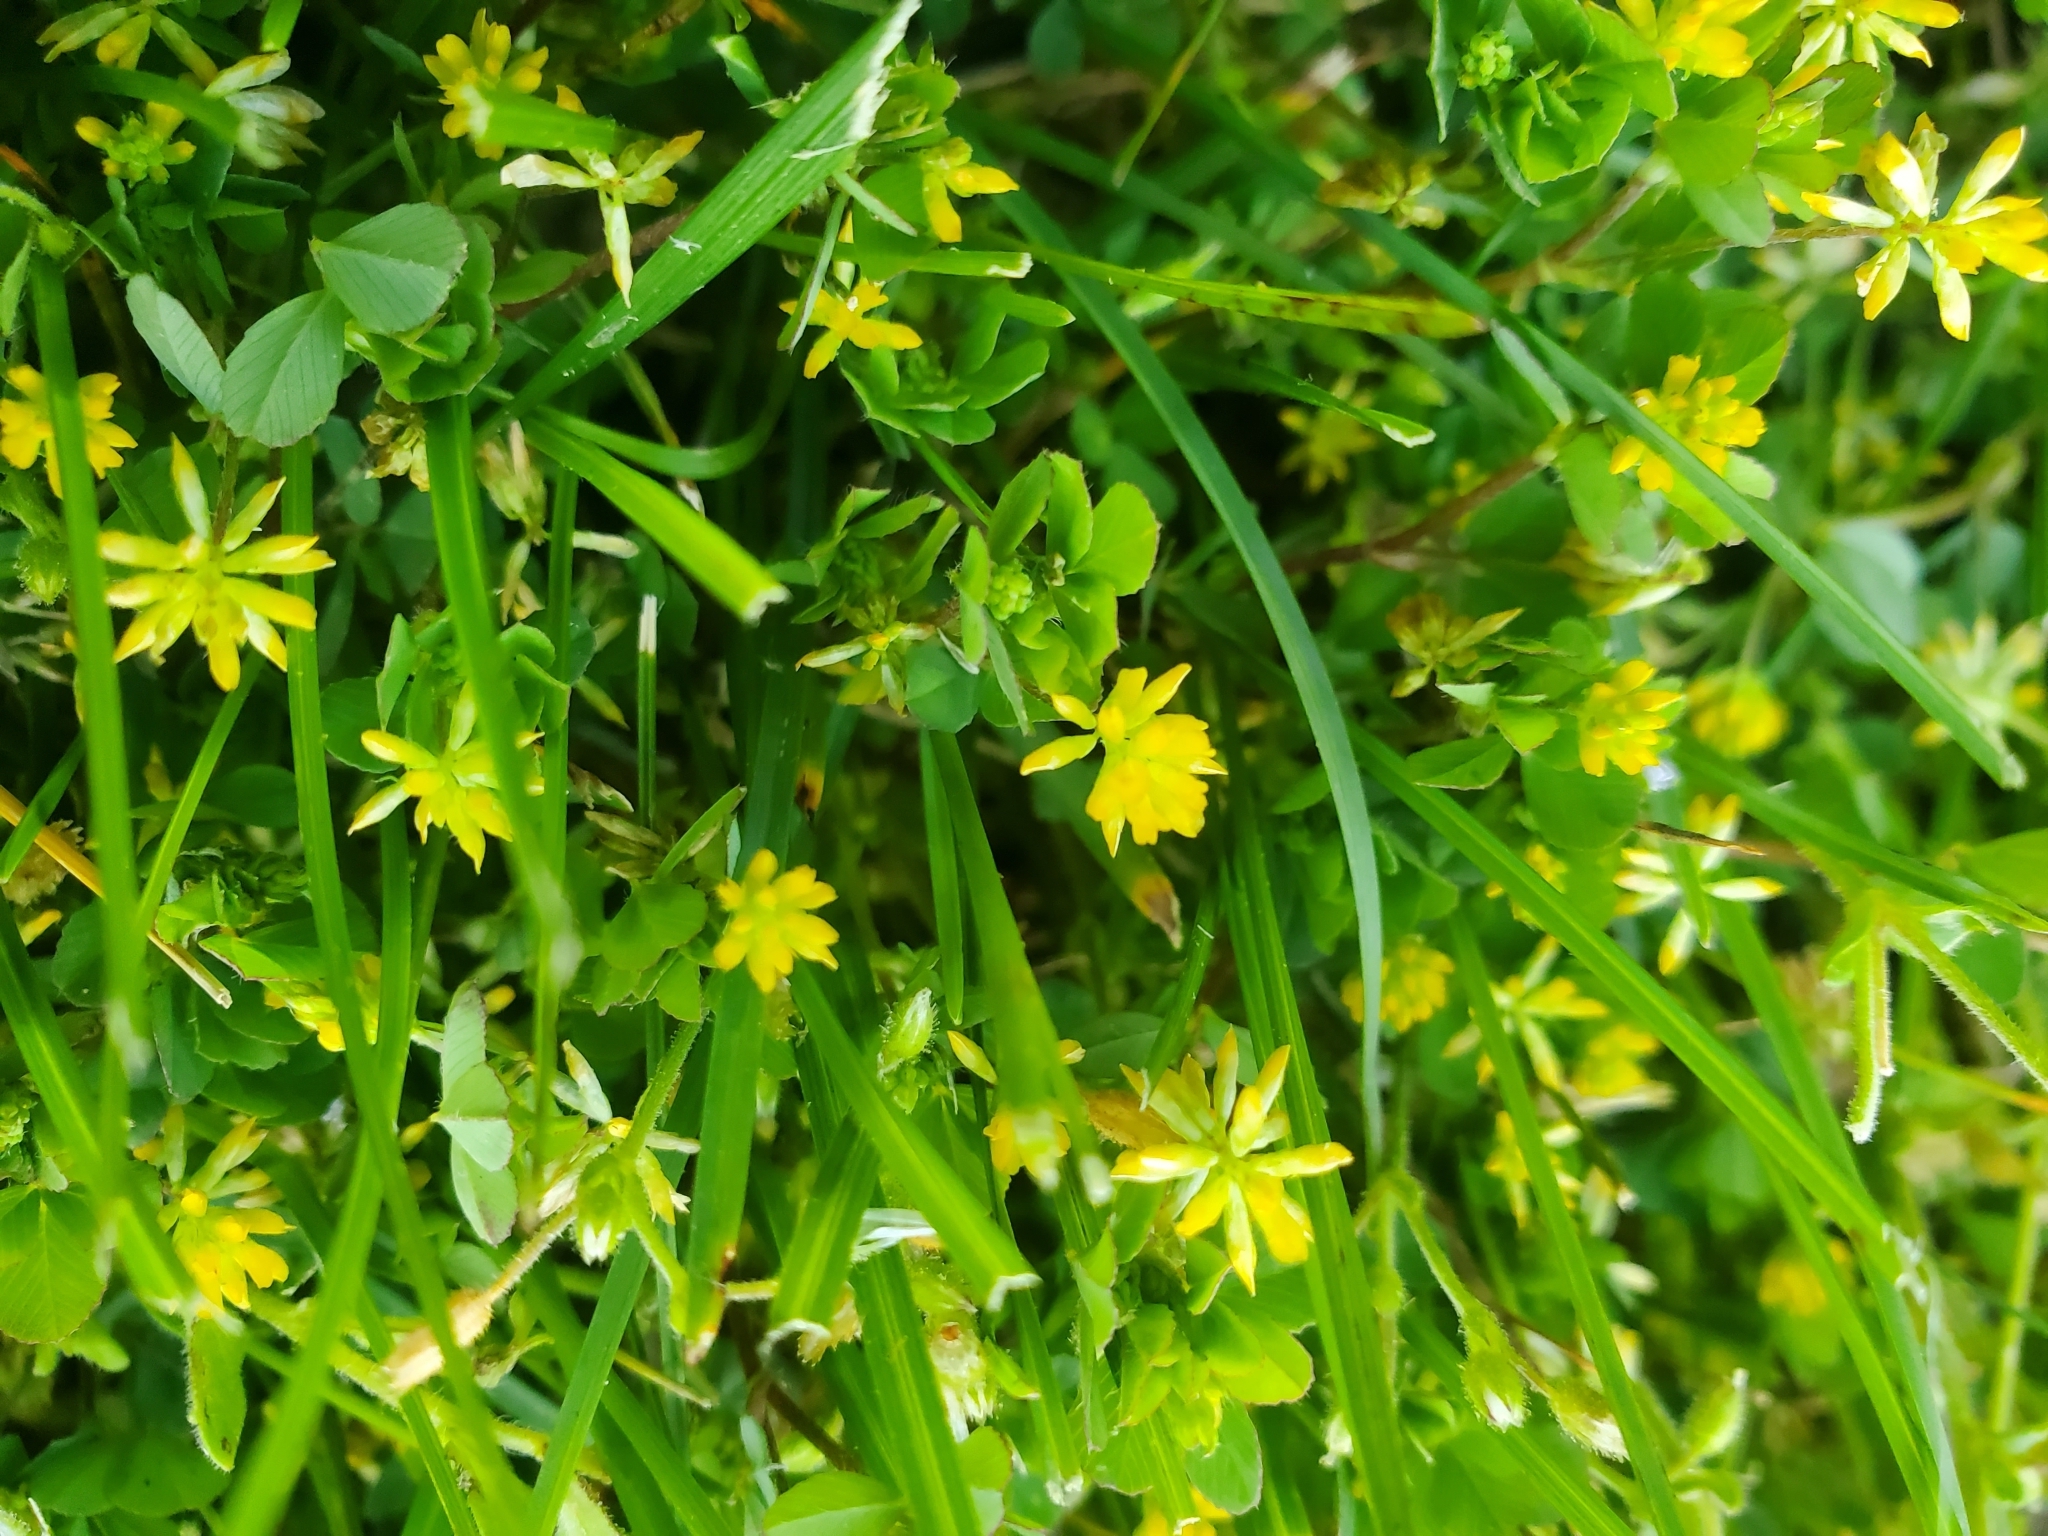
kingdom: Plantae
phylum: Tracheophyta
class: Magnoliopsida
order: Fabales
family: Fabaceae
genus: Trifolium
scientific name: Trifolium dubium
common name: Suckling clover
